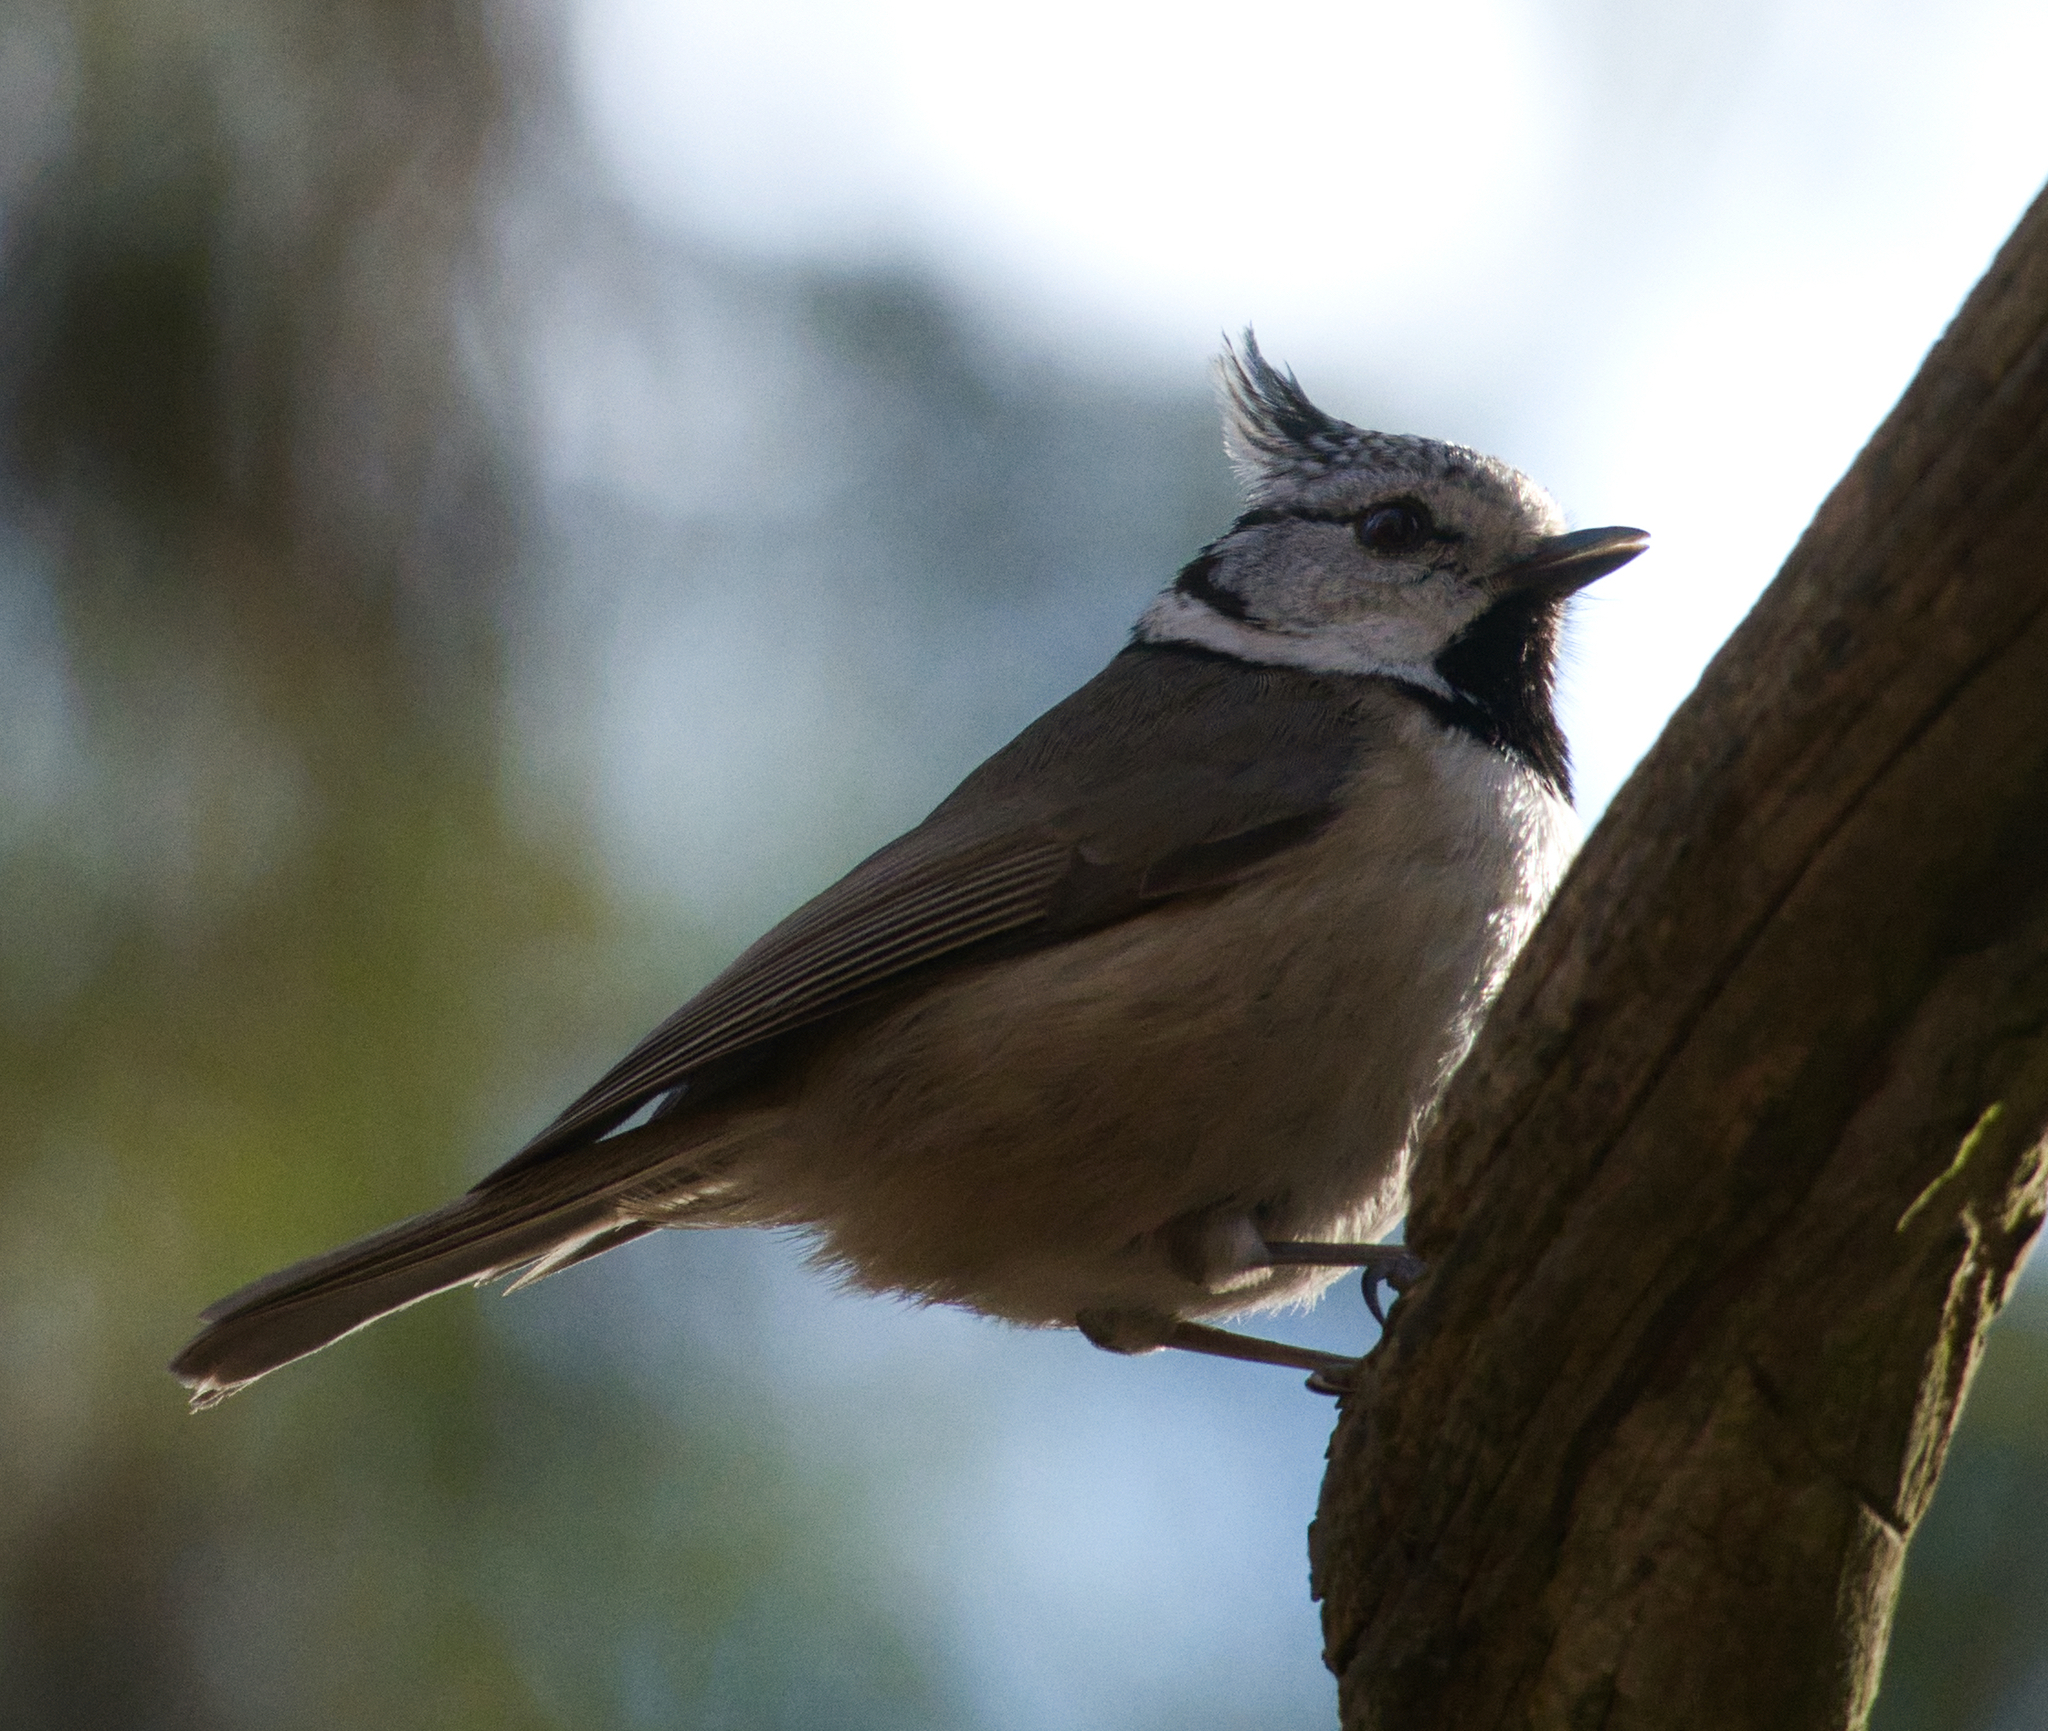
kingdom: Animalia
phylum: Chordata
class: Aves
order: Passeriformes
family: Paridae
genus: Lophophanes
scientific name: Lophophanes cristatus
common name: European crested tit
